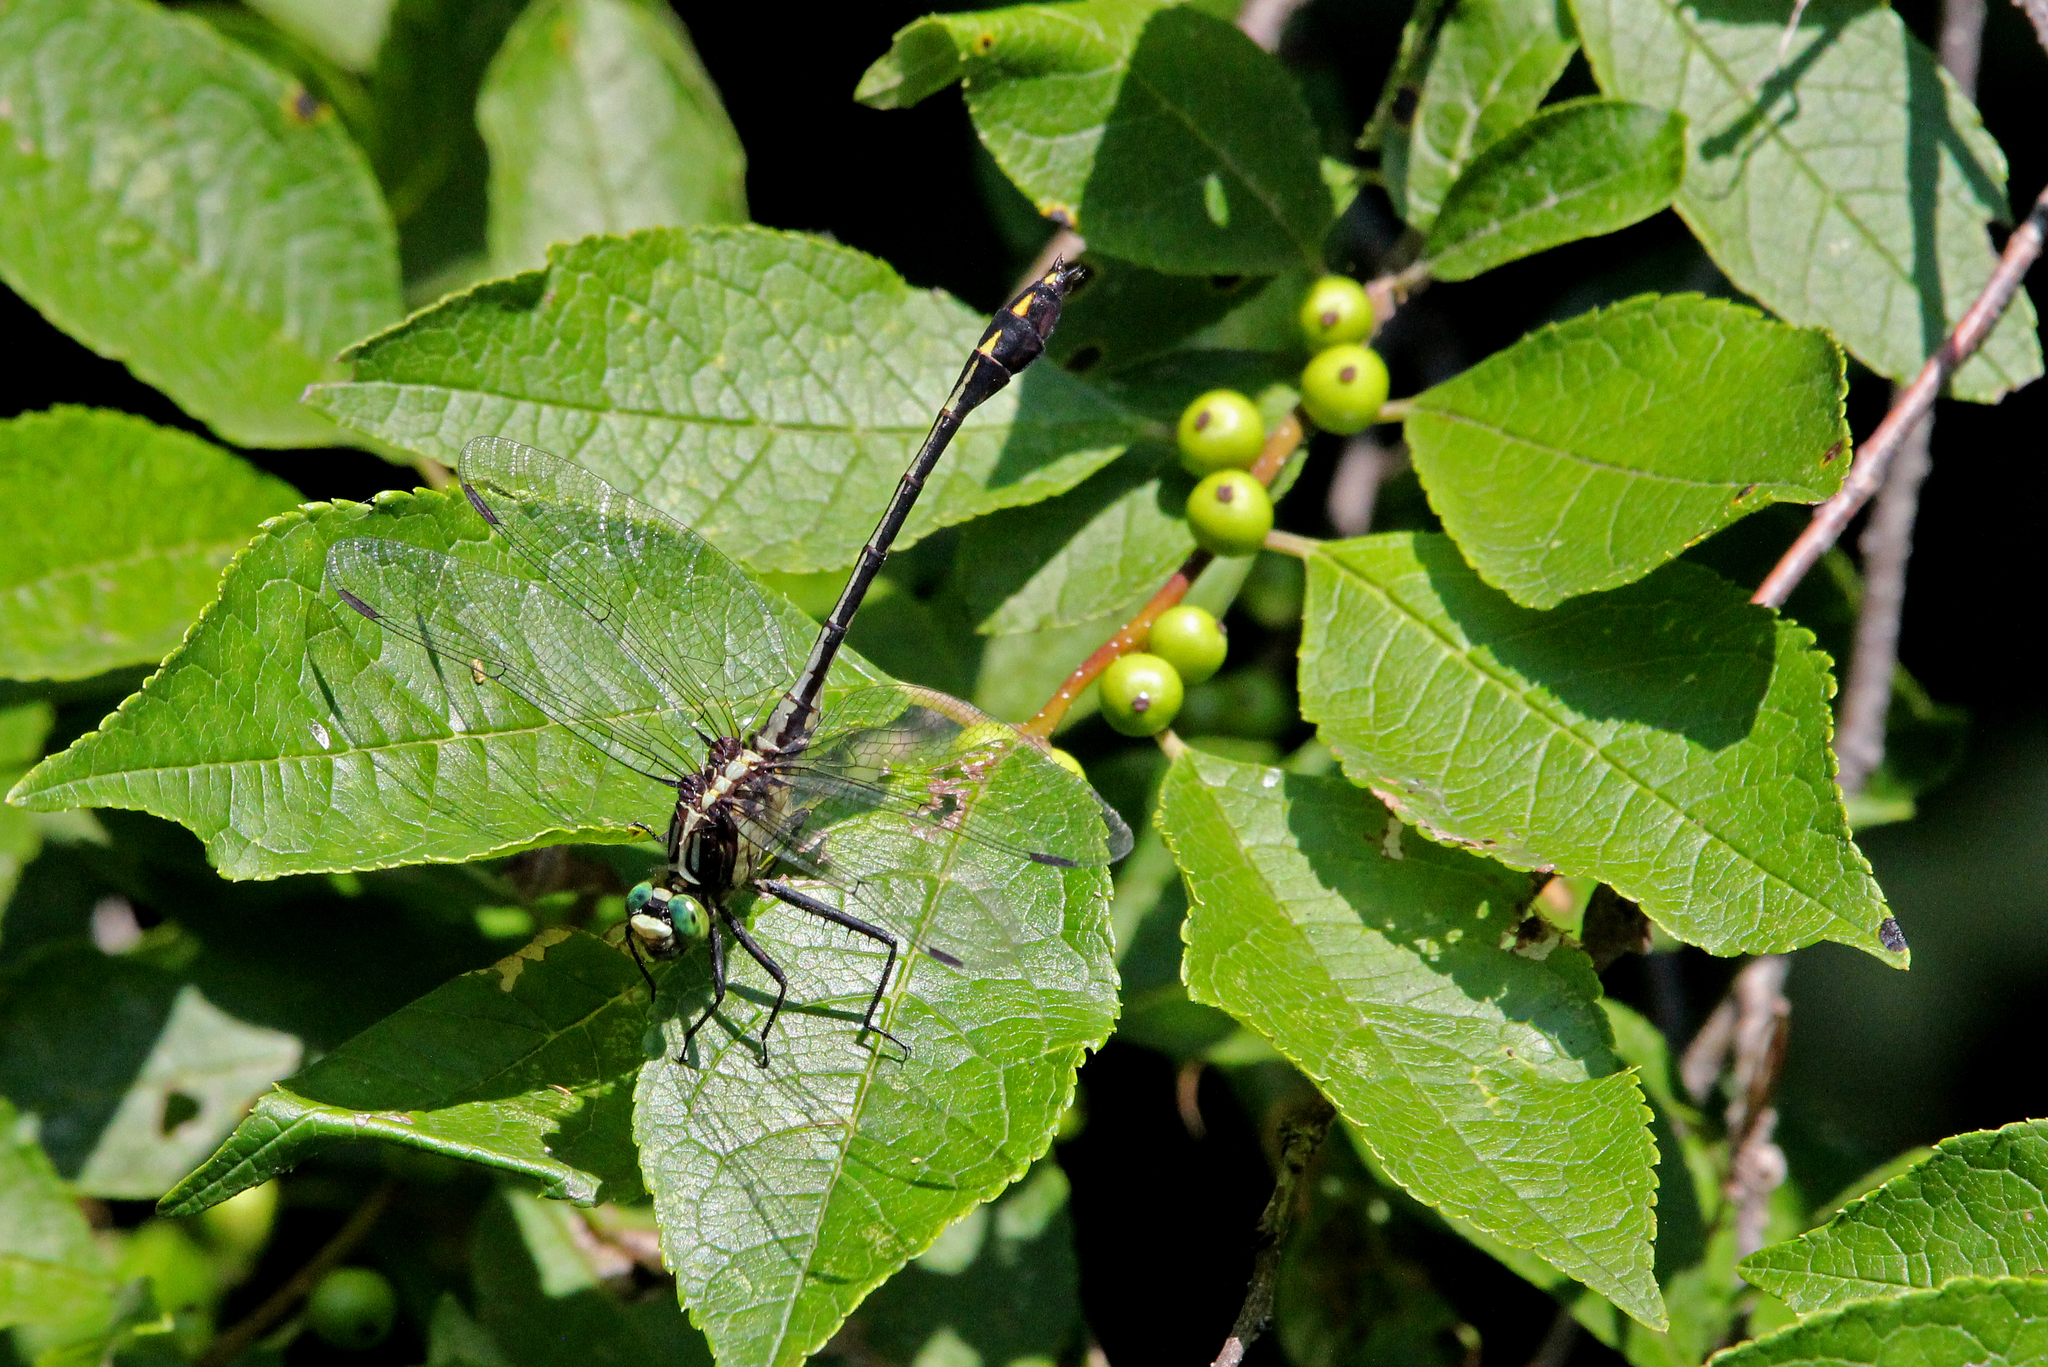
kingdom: Animalia
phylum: Arthropoda
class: Insecta
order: Odonata
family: Gomphidae
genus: Dromogomphus
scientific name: Dromogomphus spinosus
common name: Black-shouldered spinyleg
